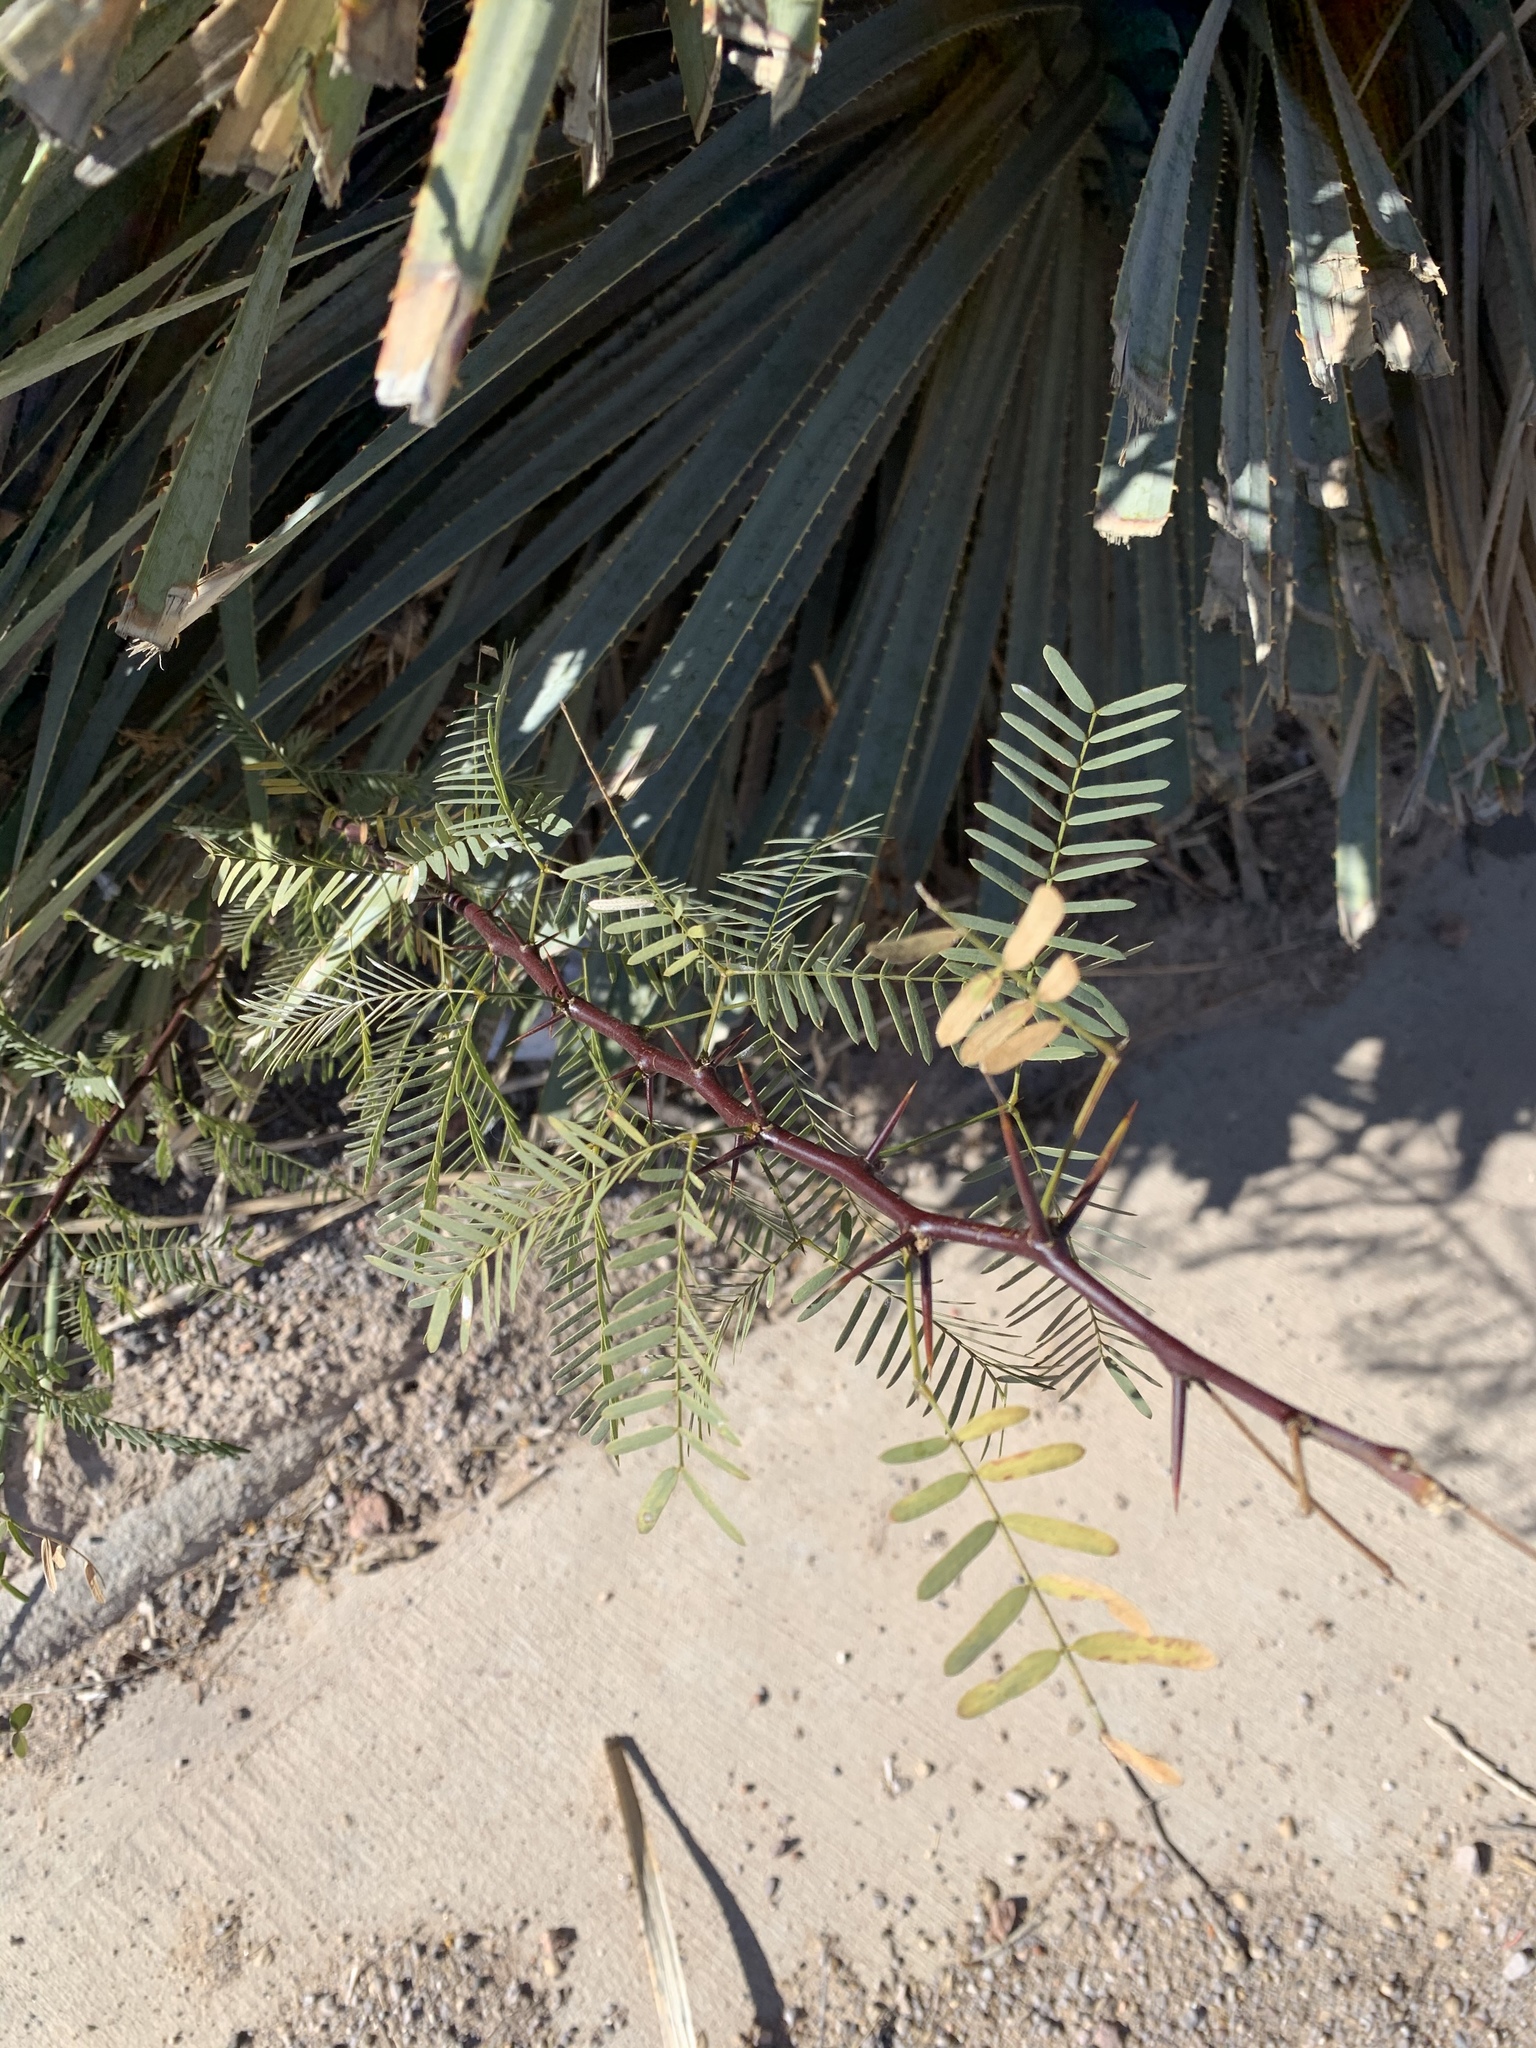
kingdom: Plantae
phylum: Tracheophyta
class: Magnoliopsida
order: Fabales
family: Fabaceae
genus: Prosopis
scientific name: Prosopis glandulosa
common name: Honey mesquite
